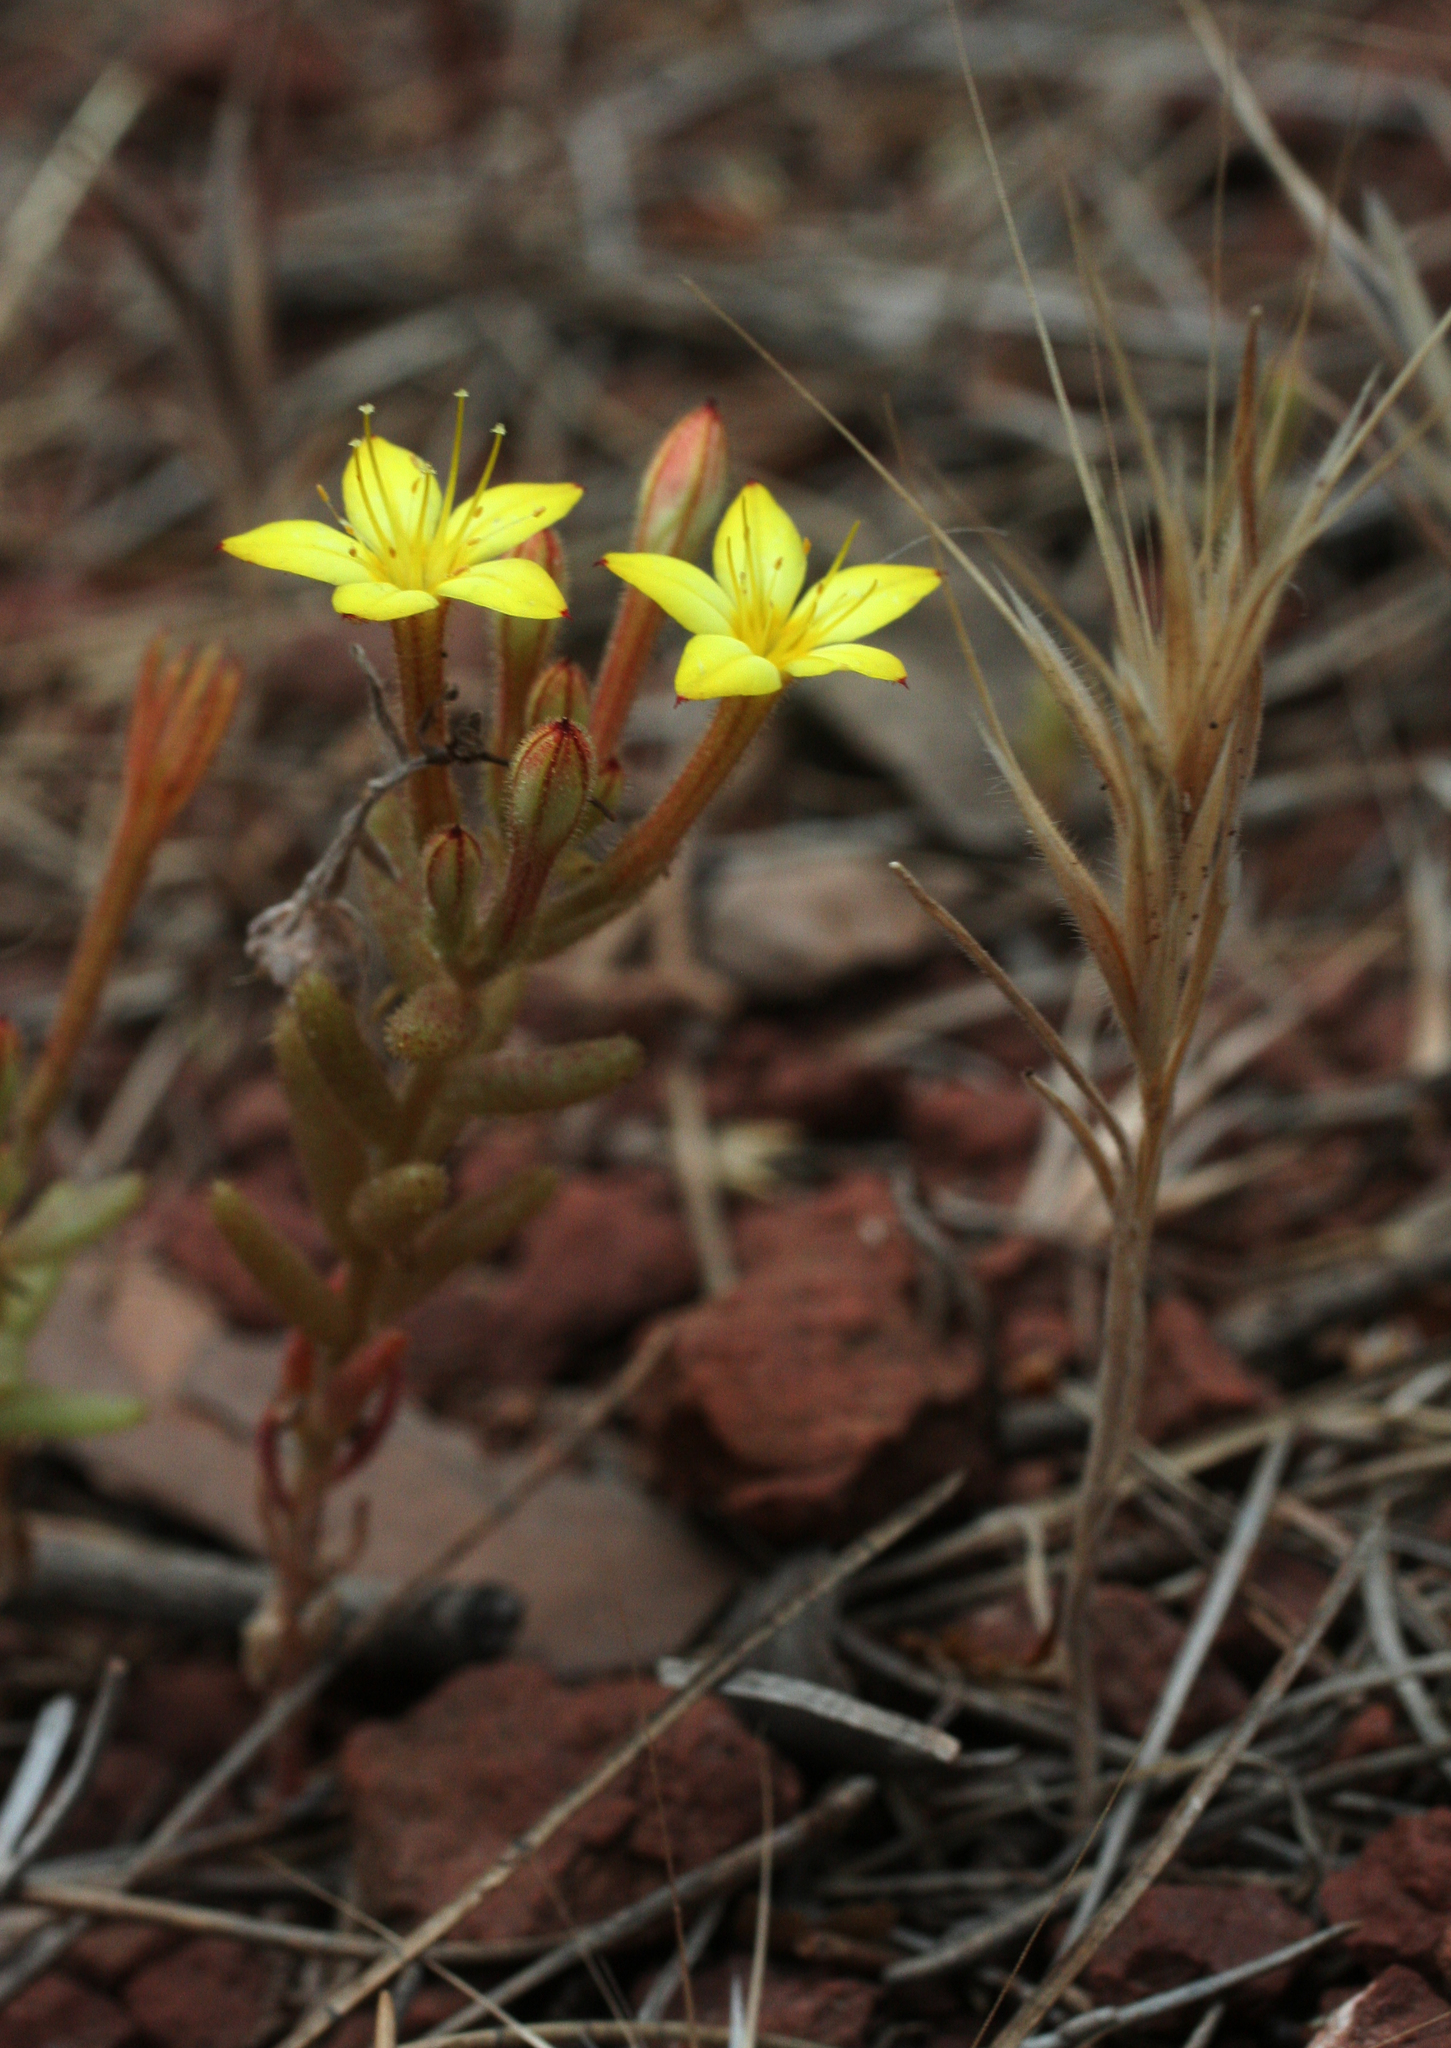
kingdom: Plantae
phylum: Tracheophyta
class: Magnoliopsida
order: Saxifragales
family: Crassulaceae
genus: Pistorinia
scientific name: Pistorinia attenuata
